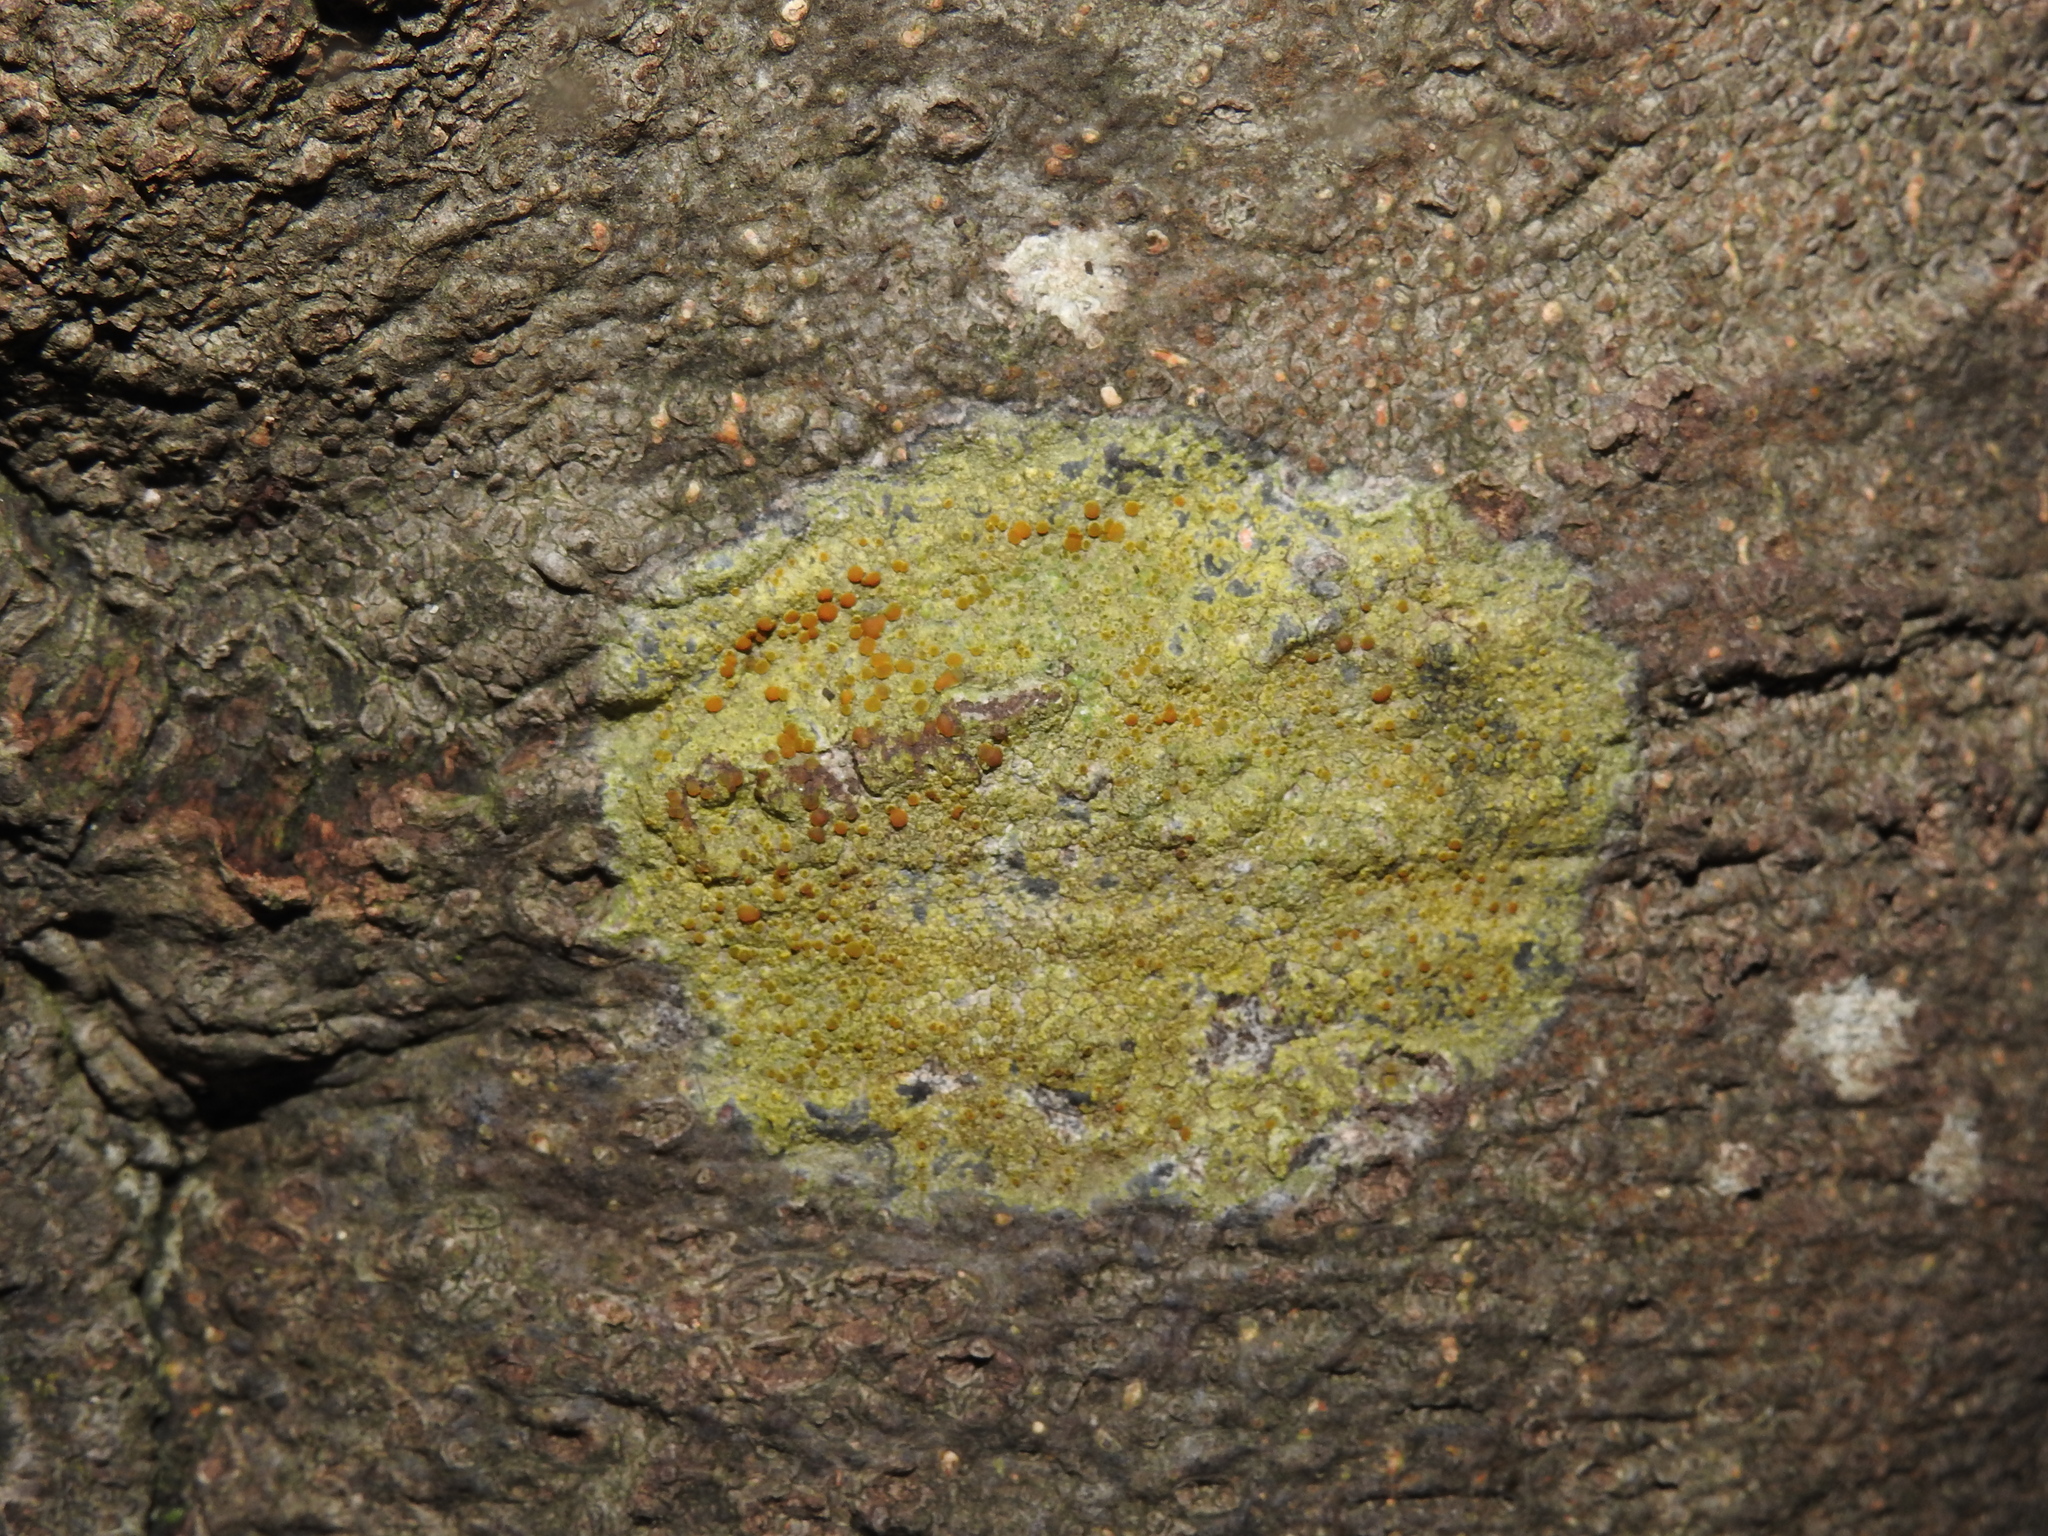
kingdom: Fungi
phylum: Ascomycota
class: Lecanoromycetes
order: Teloschistales
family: Teloschistaceae
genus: Gyalolechia
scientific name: Gyalolechia flavovirescens
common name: Sulphur firedot
